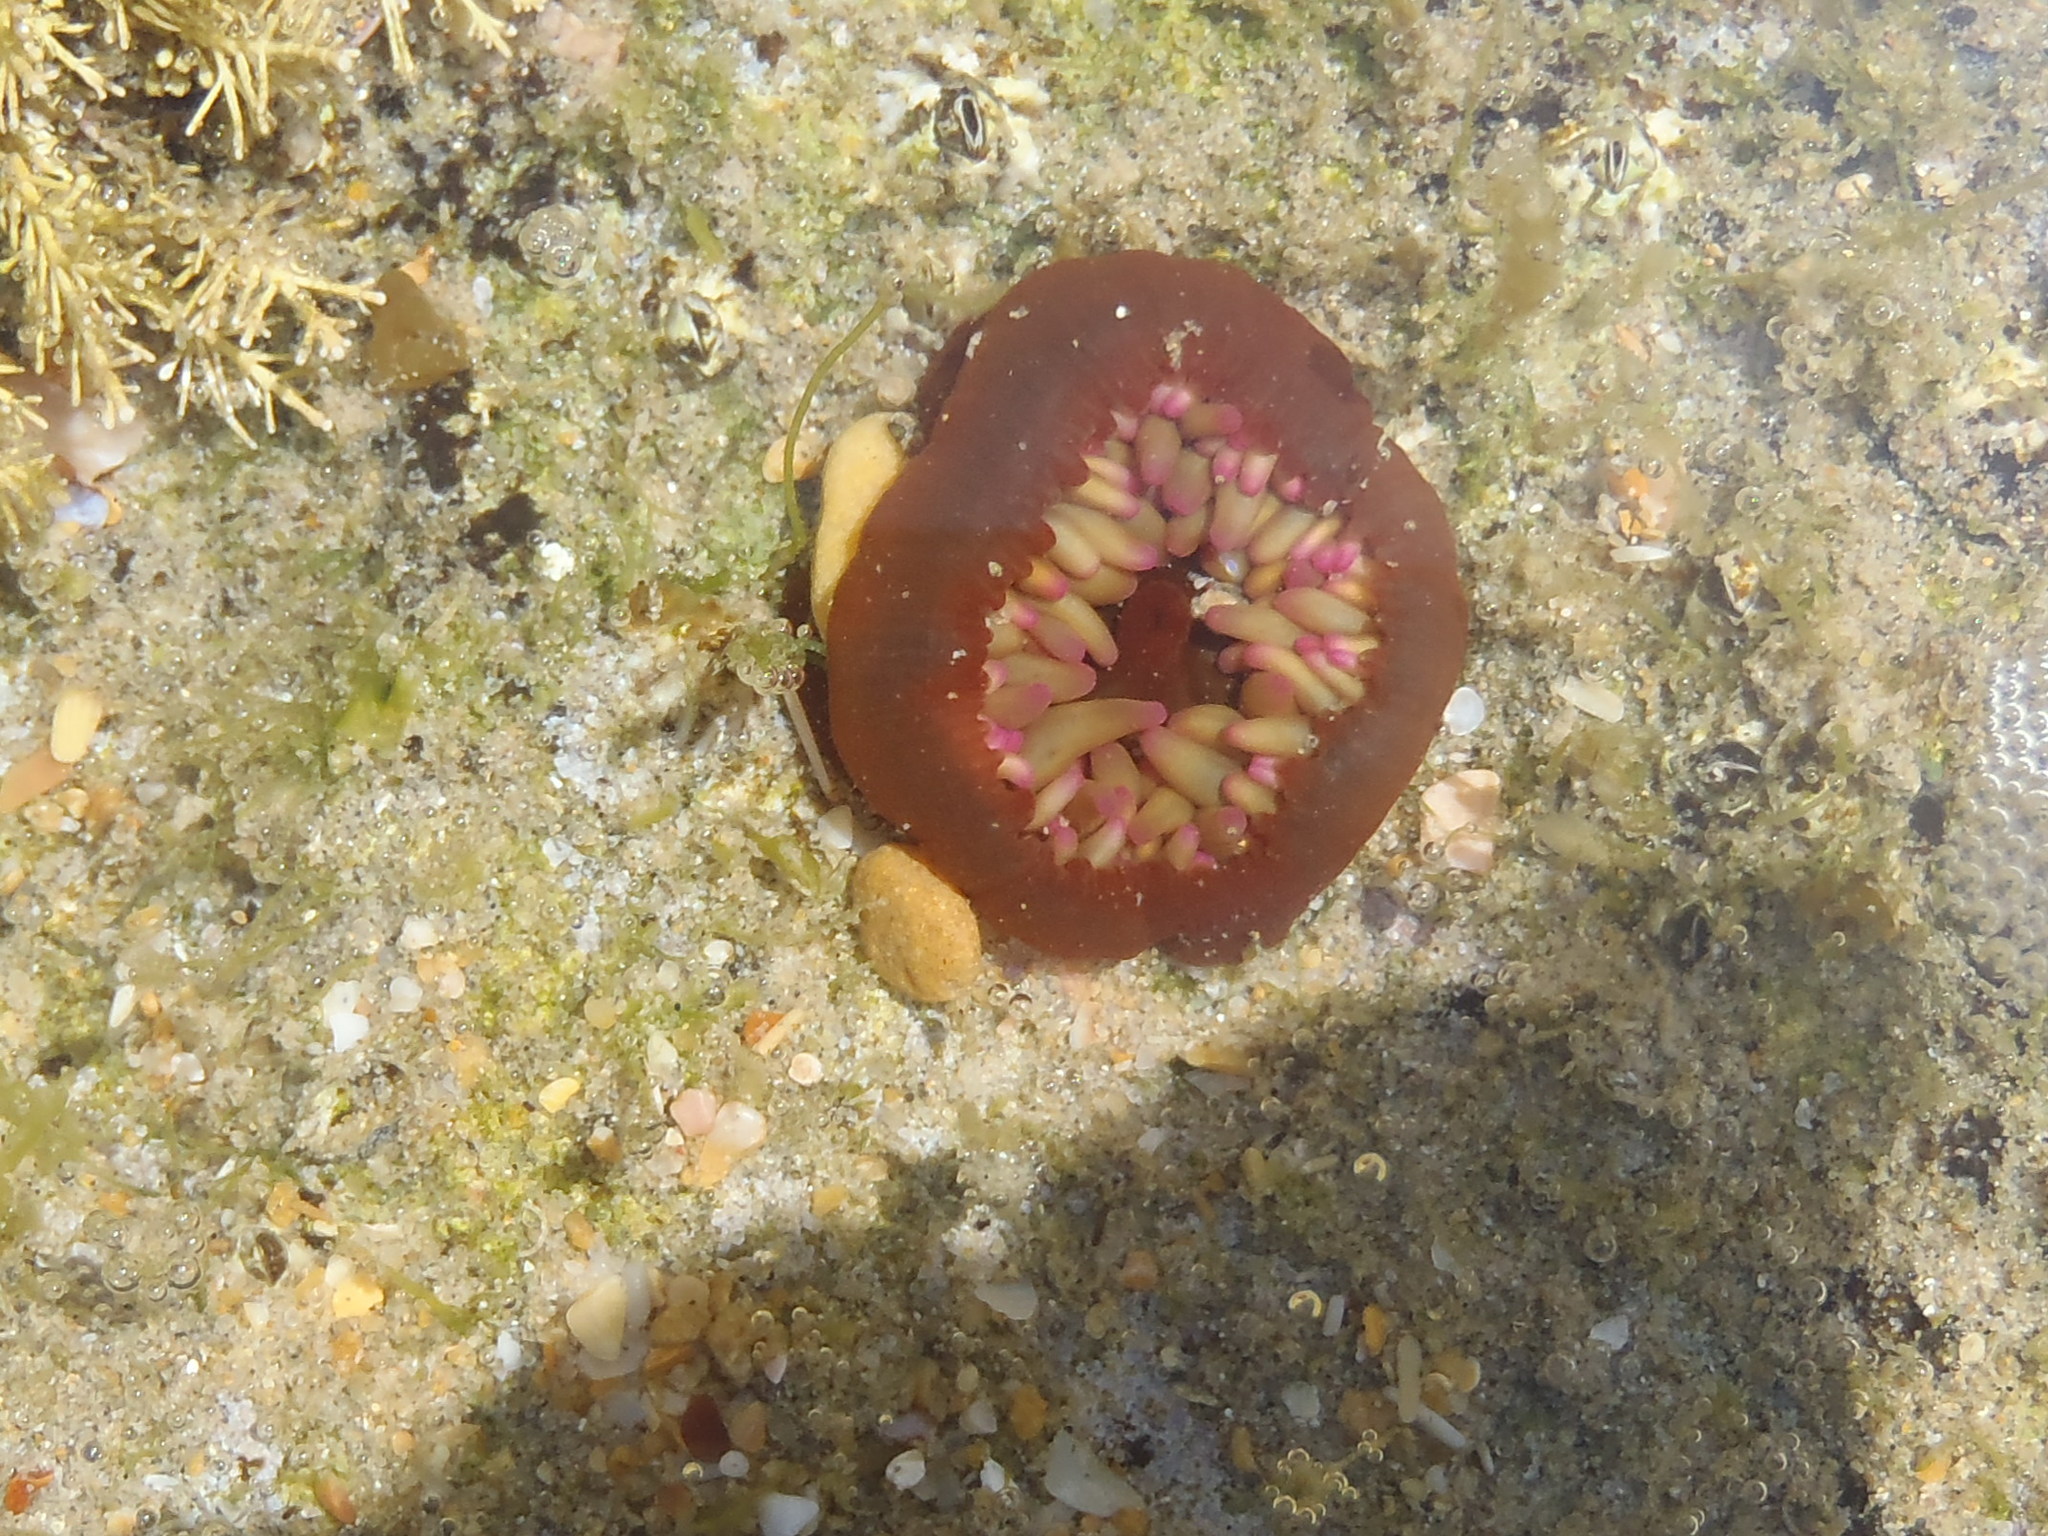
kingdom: Animalia
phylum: Cnidaria
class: Anthozoa
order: Actiniaria
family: Actiniidae
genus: Pseudactinia
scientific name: Pseudactinia flagellifera
